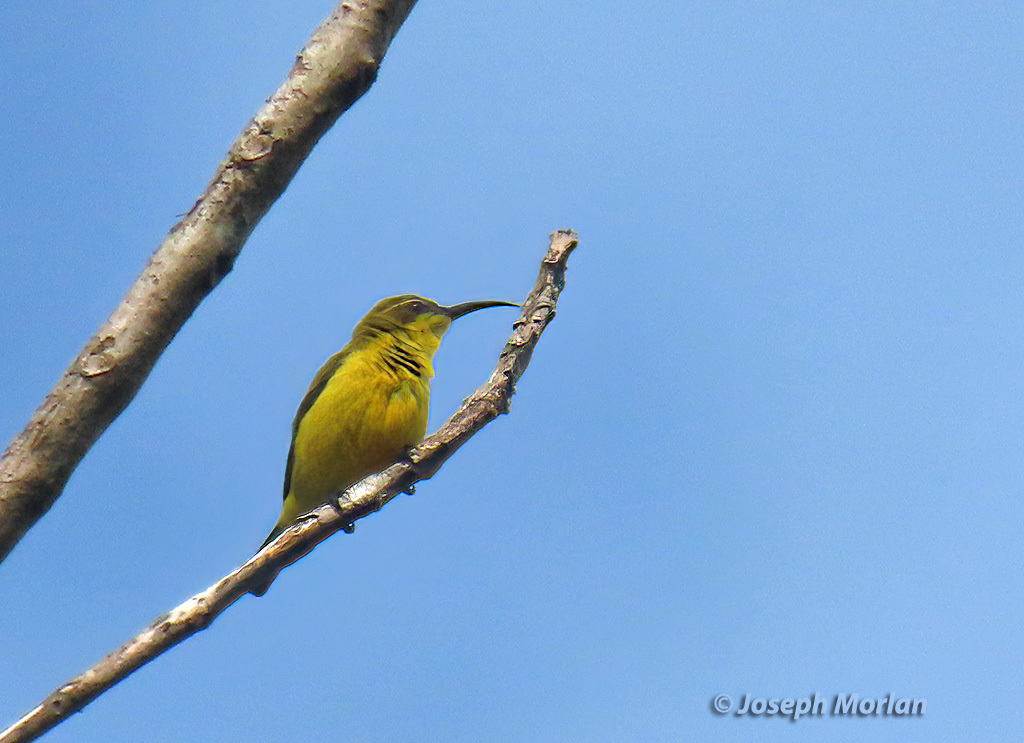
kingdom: Animalia
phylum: Chordata
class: Aves
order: Passeriformes
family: Nectariniidae
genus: Cinnyris
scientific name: Cinnyris
